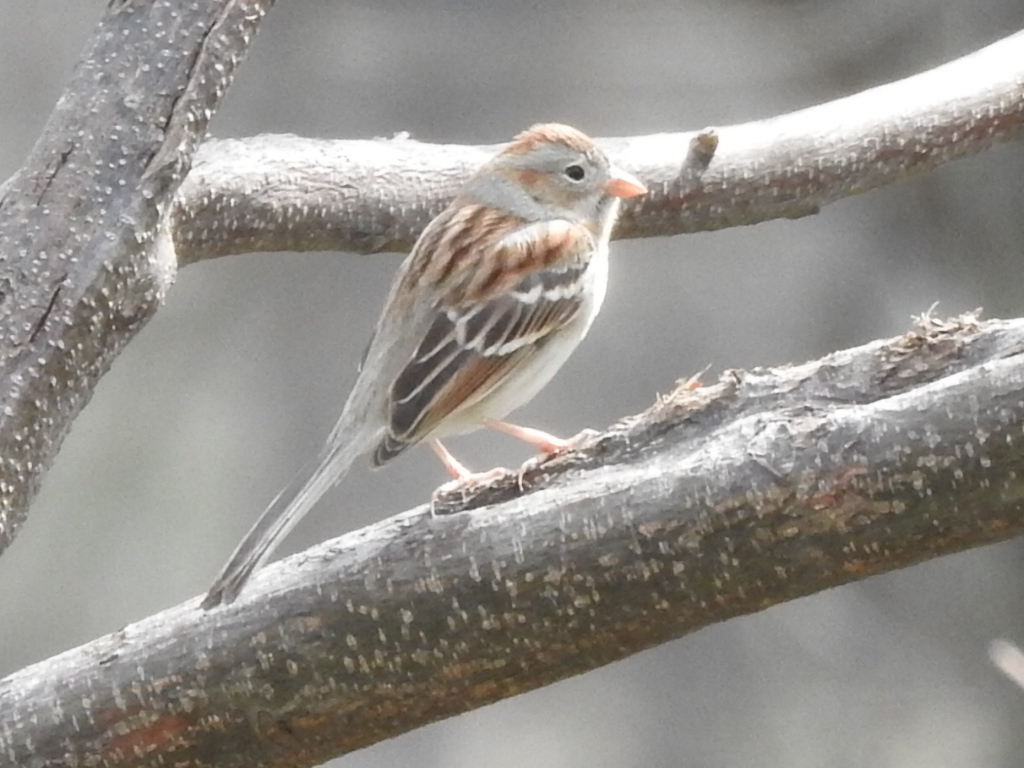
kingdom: Animalia
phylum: Chordata
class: Aves
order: Passeriformes
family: Passerellidae
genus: Spizella
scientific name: Spizella pusilla
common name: Field sparrow
